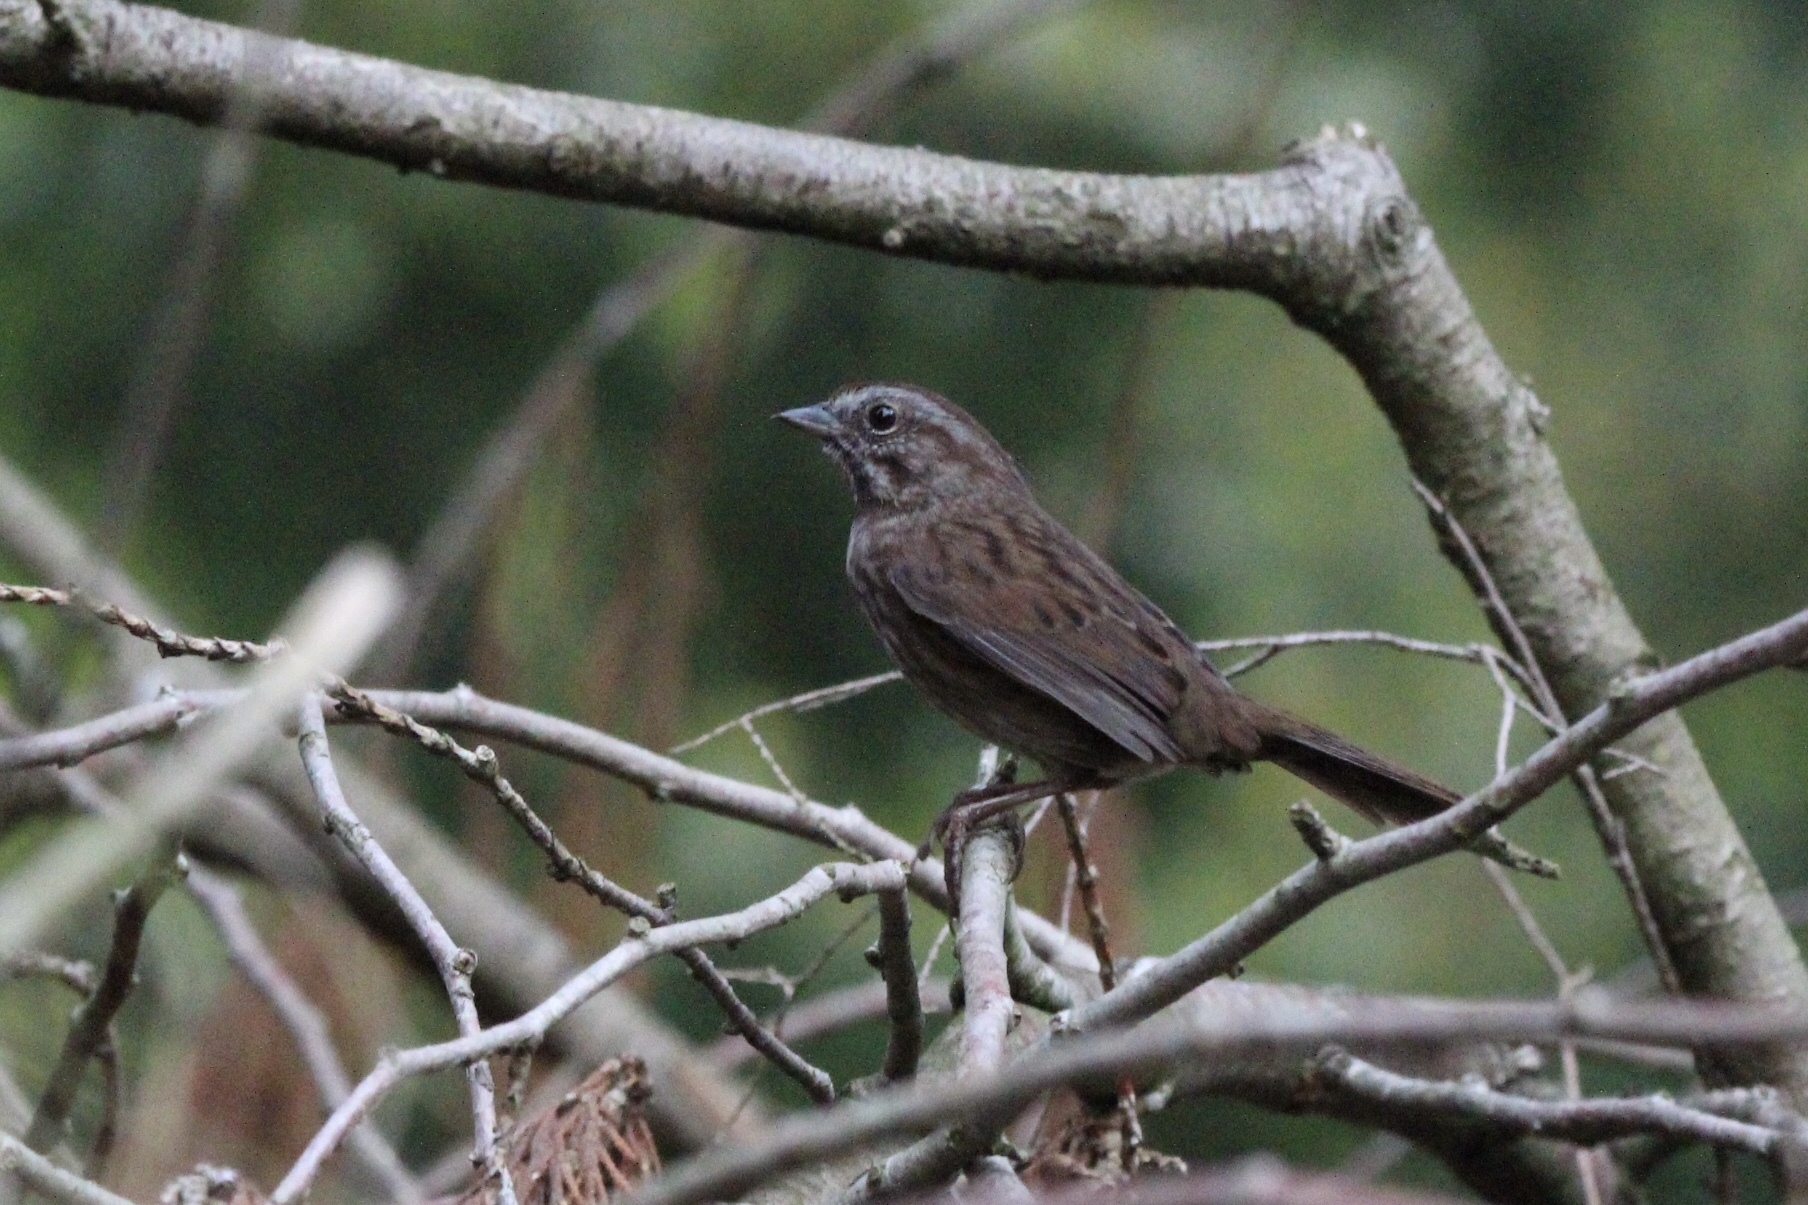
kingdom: Animalia
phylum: Chordata
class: Aves
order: Passeriformes
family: Passerellidae
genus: Melospiza
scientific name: Melospiza melodia
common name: Song sparrow
